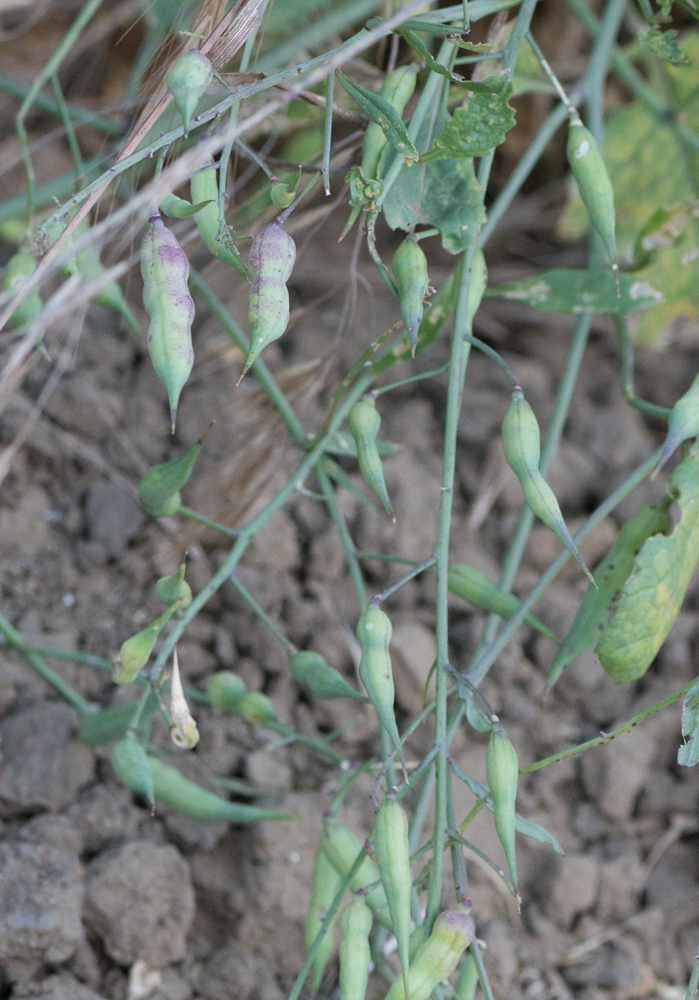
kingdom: Plantae
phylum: Tracheophyta
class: Magnoliopsida
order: Brassicales
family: Brassicaceae
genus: Raphanus
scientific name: Raphanus sativus
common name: Cultivated radish
